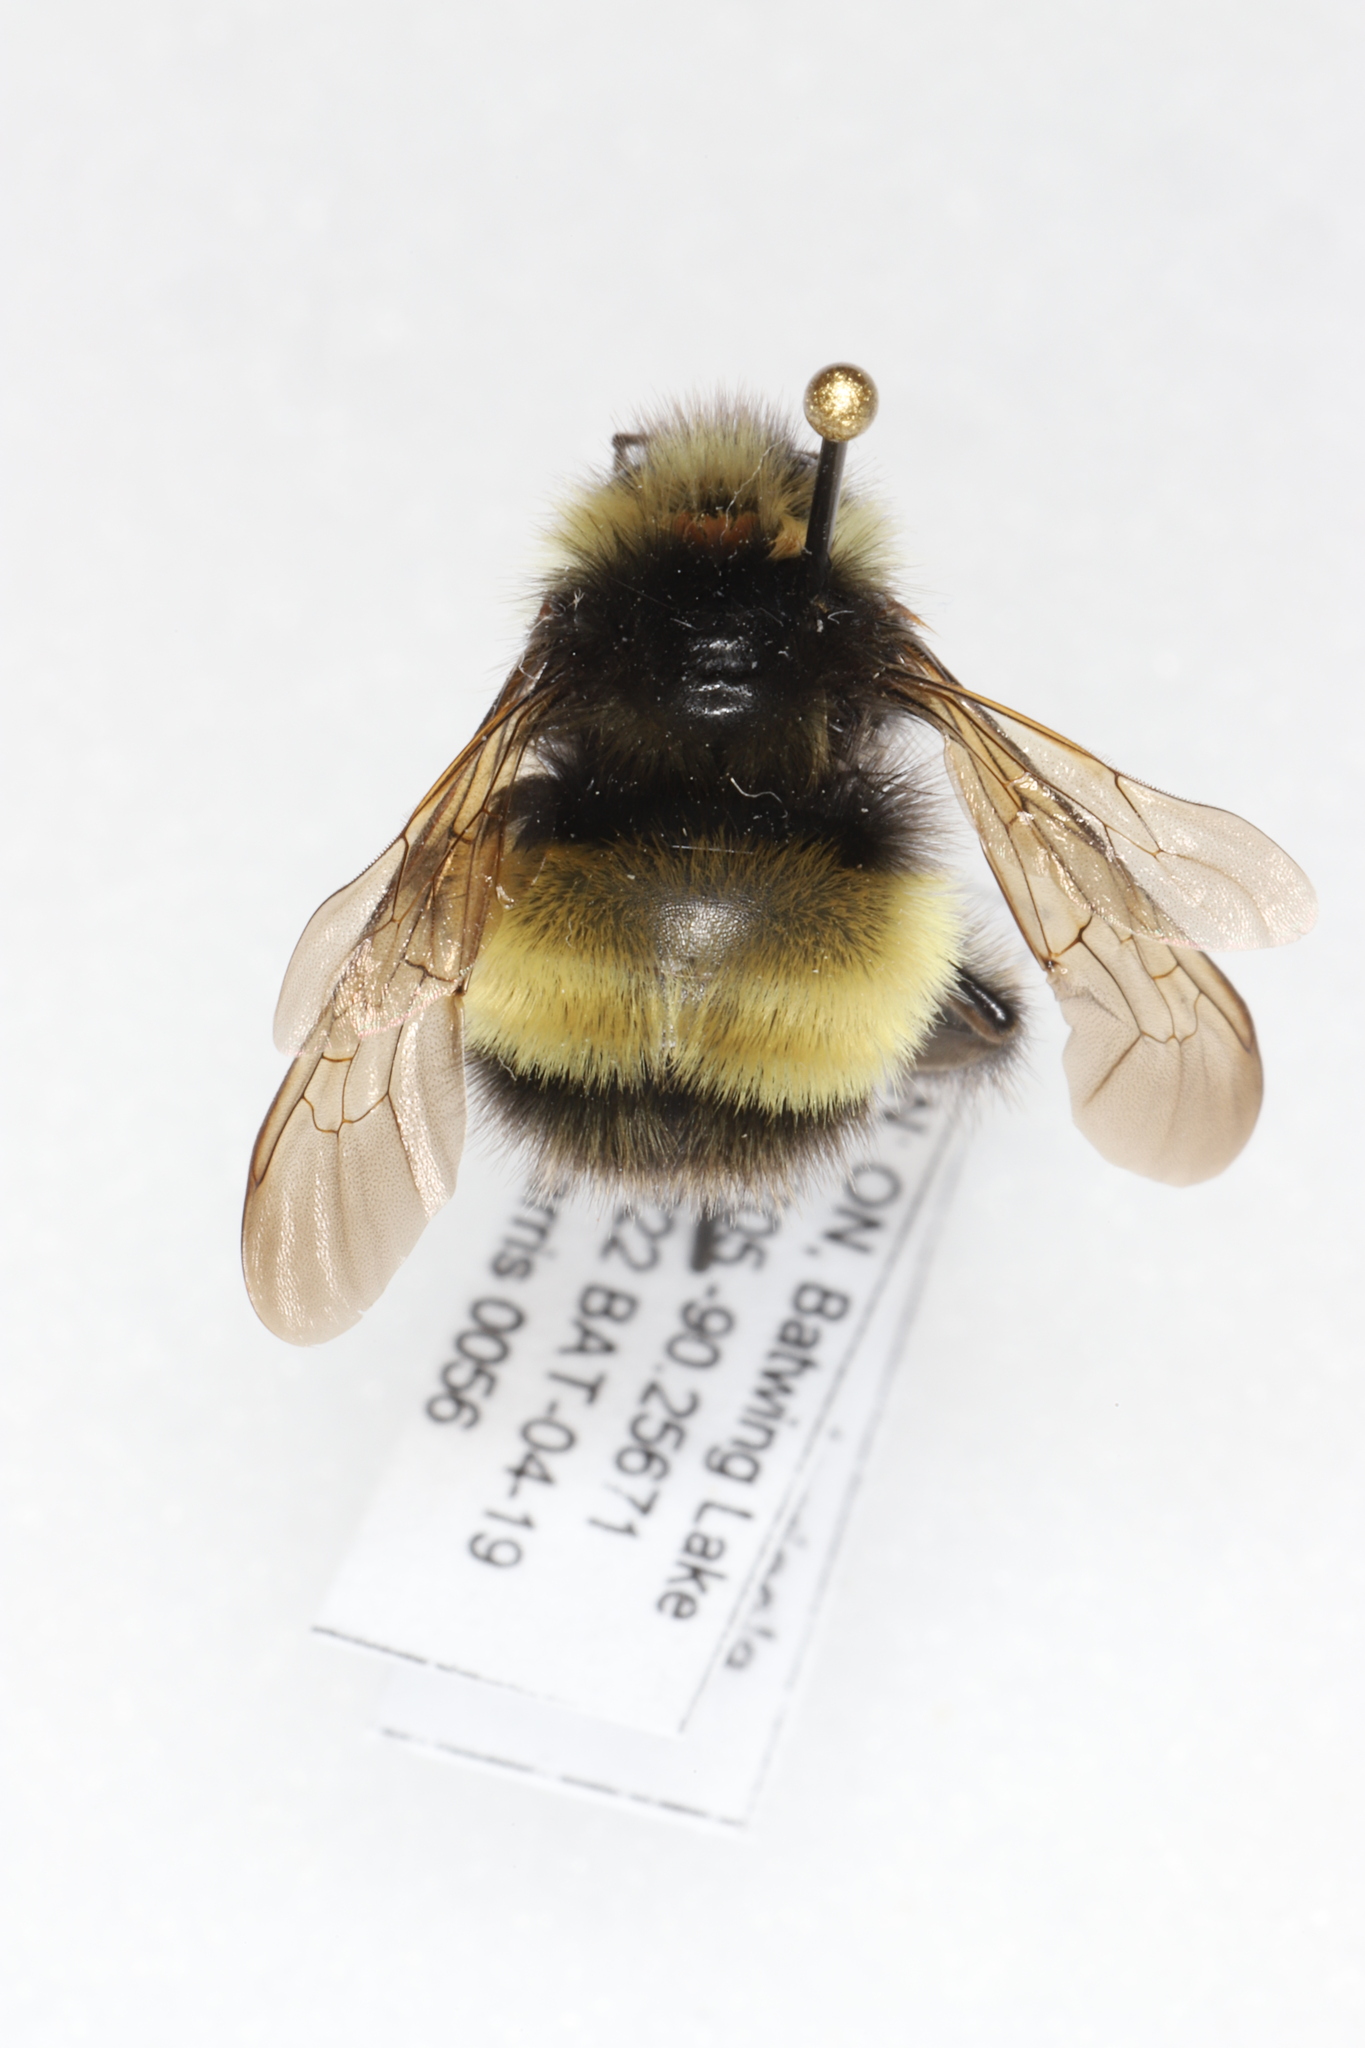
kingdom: Animalia
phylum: Arthropoda
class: Insecta
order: Hymenoptera
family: Apidae
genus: Bombus
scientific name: Bombus terricola
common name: Yellow-banded bumble bee
